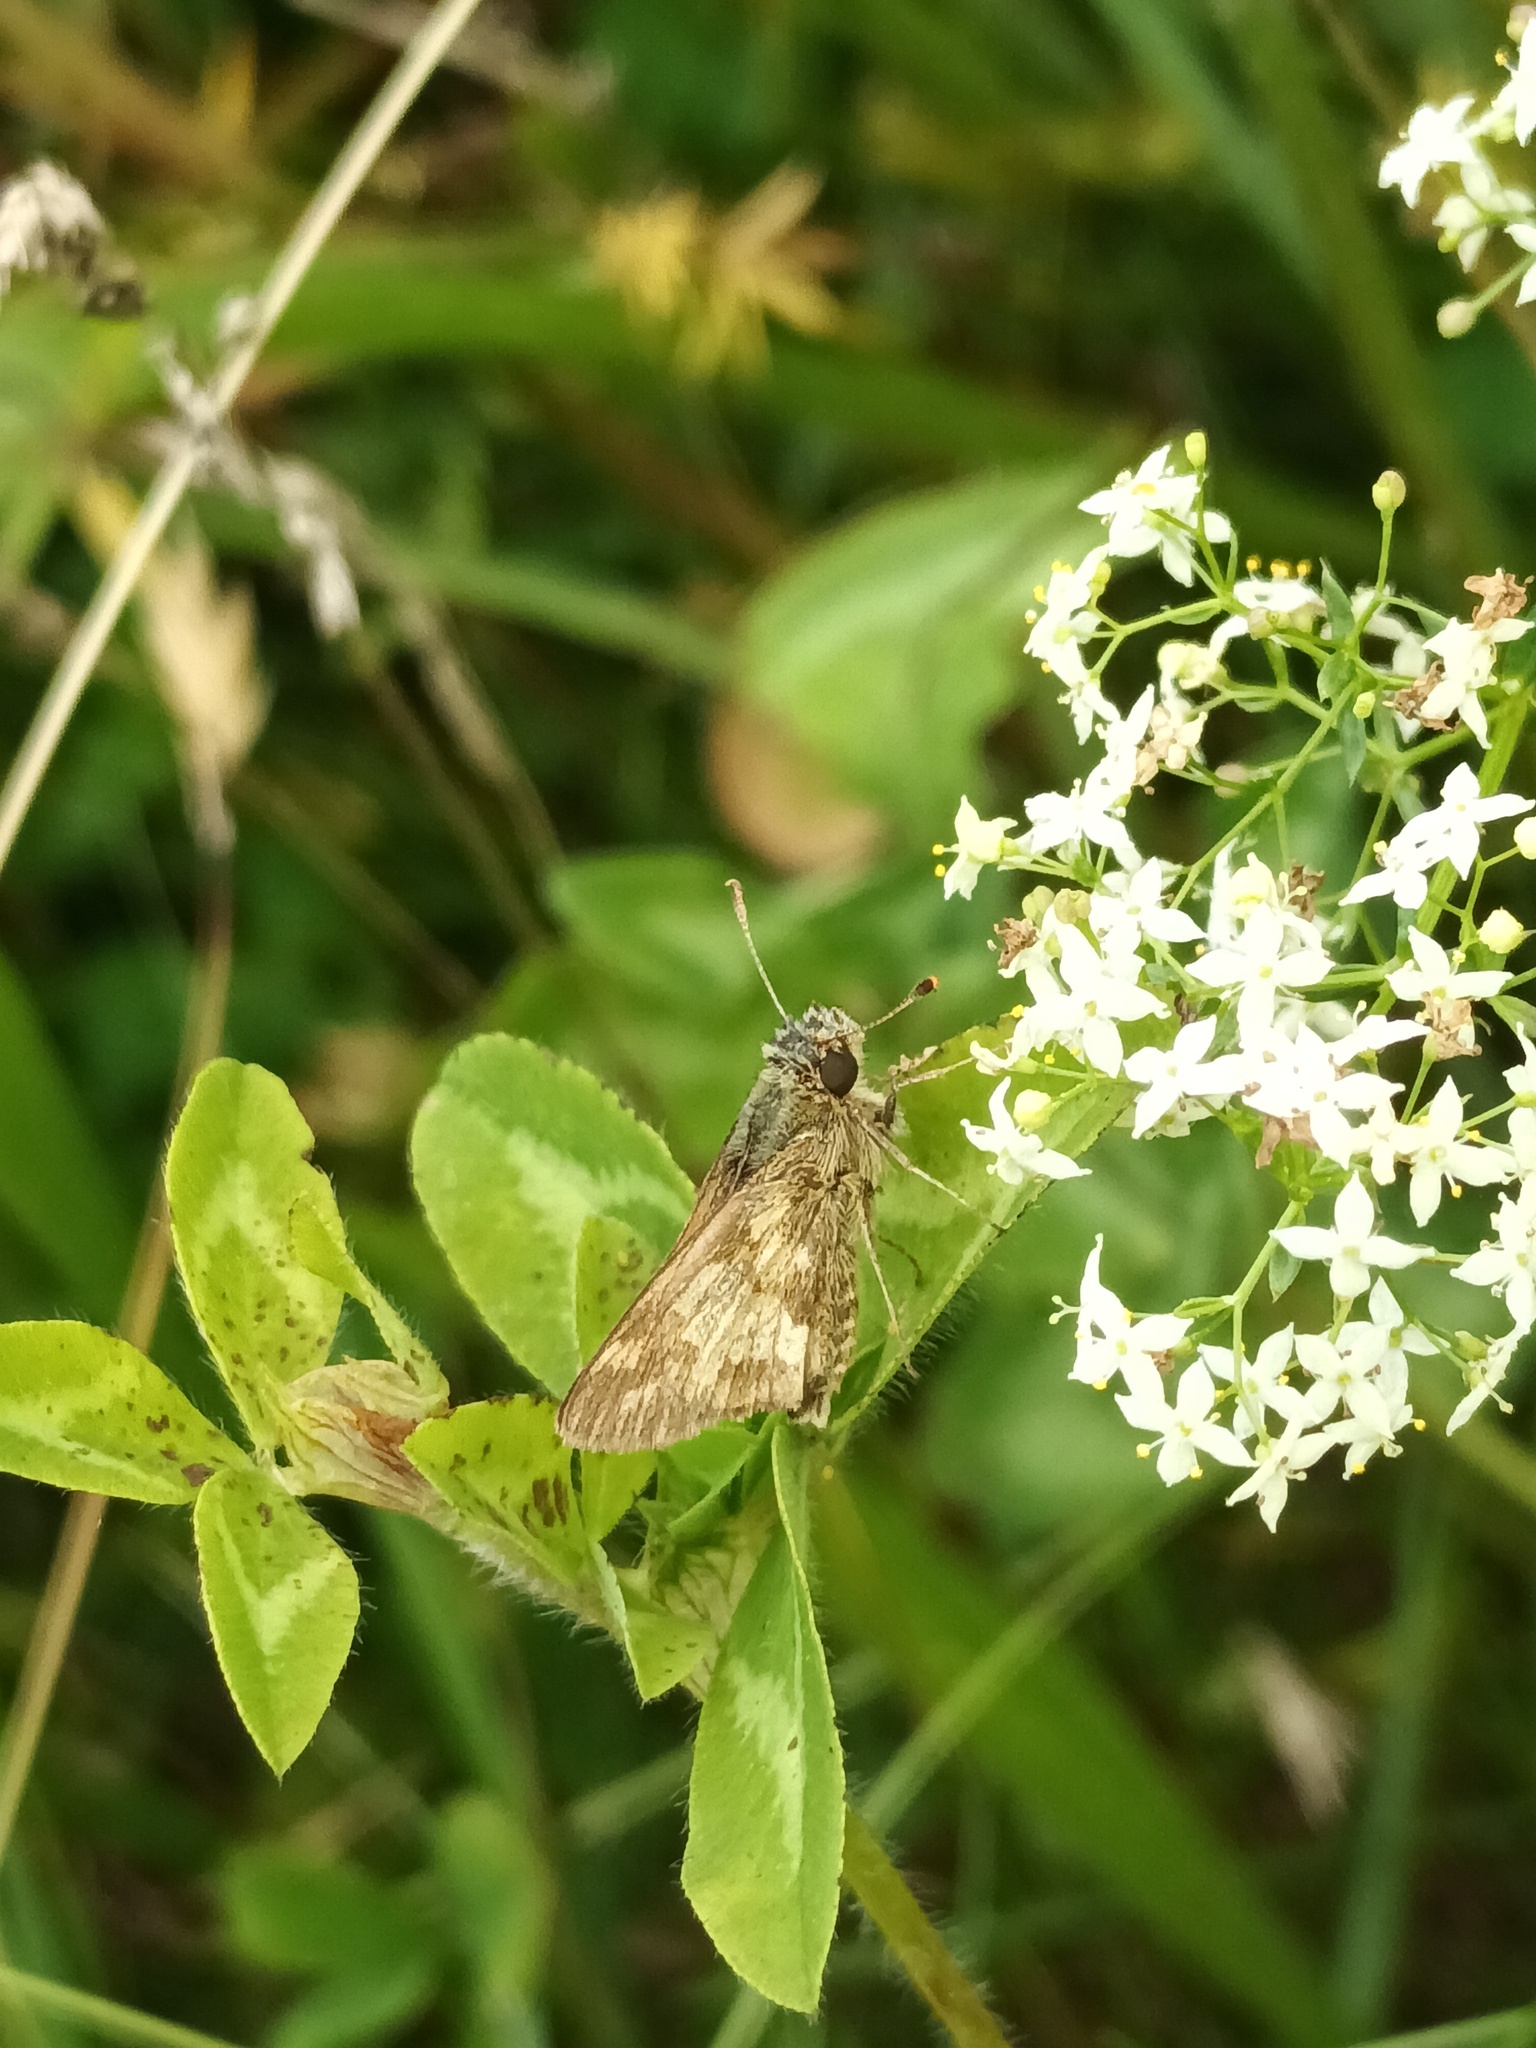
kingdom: Animalia
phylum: Arthropoda
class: Insecta
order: Lepidoptera
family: Hesperiidae
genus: Polites
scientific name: Polites coras
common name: Peck's skipper
